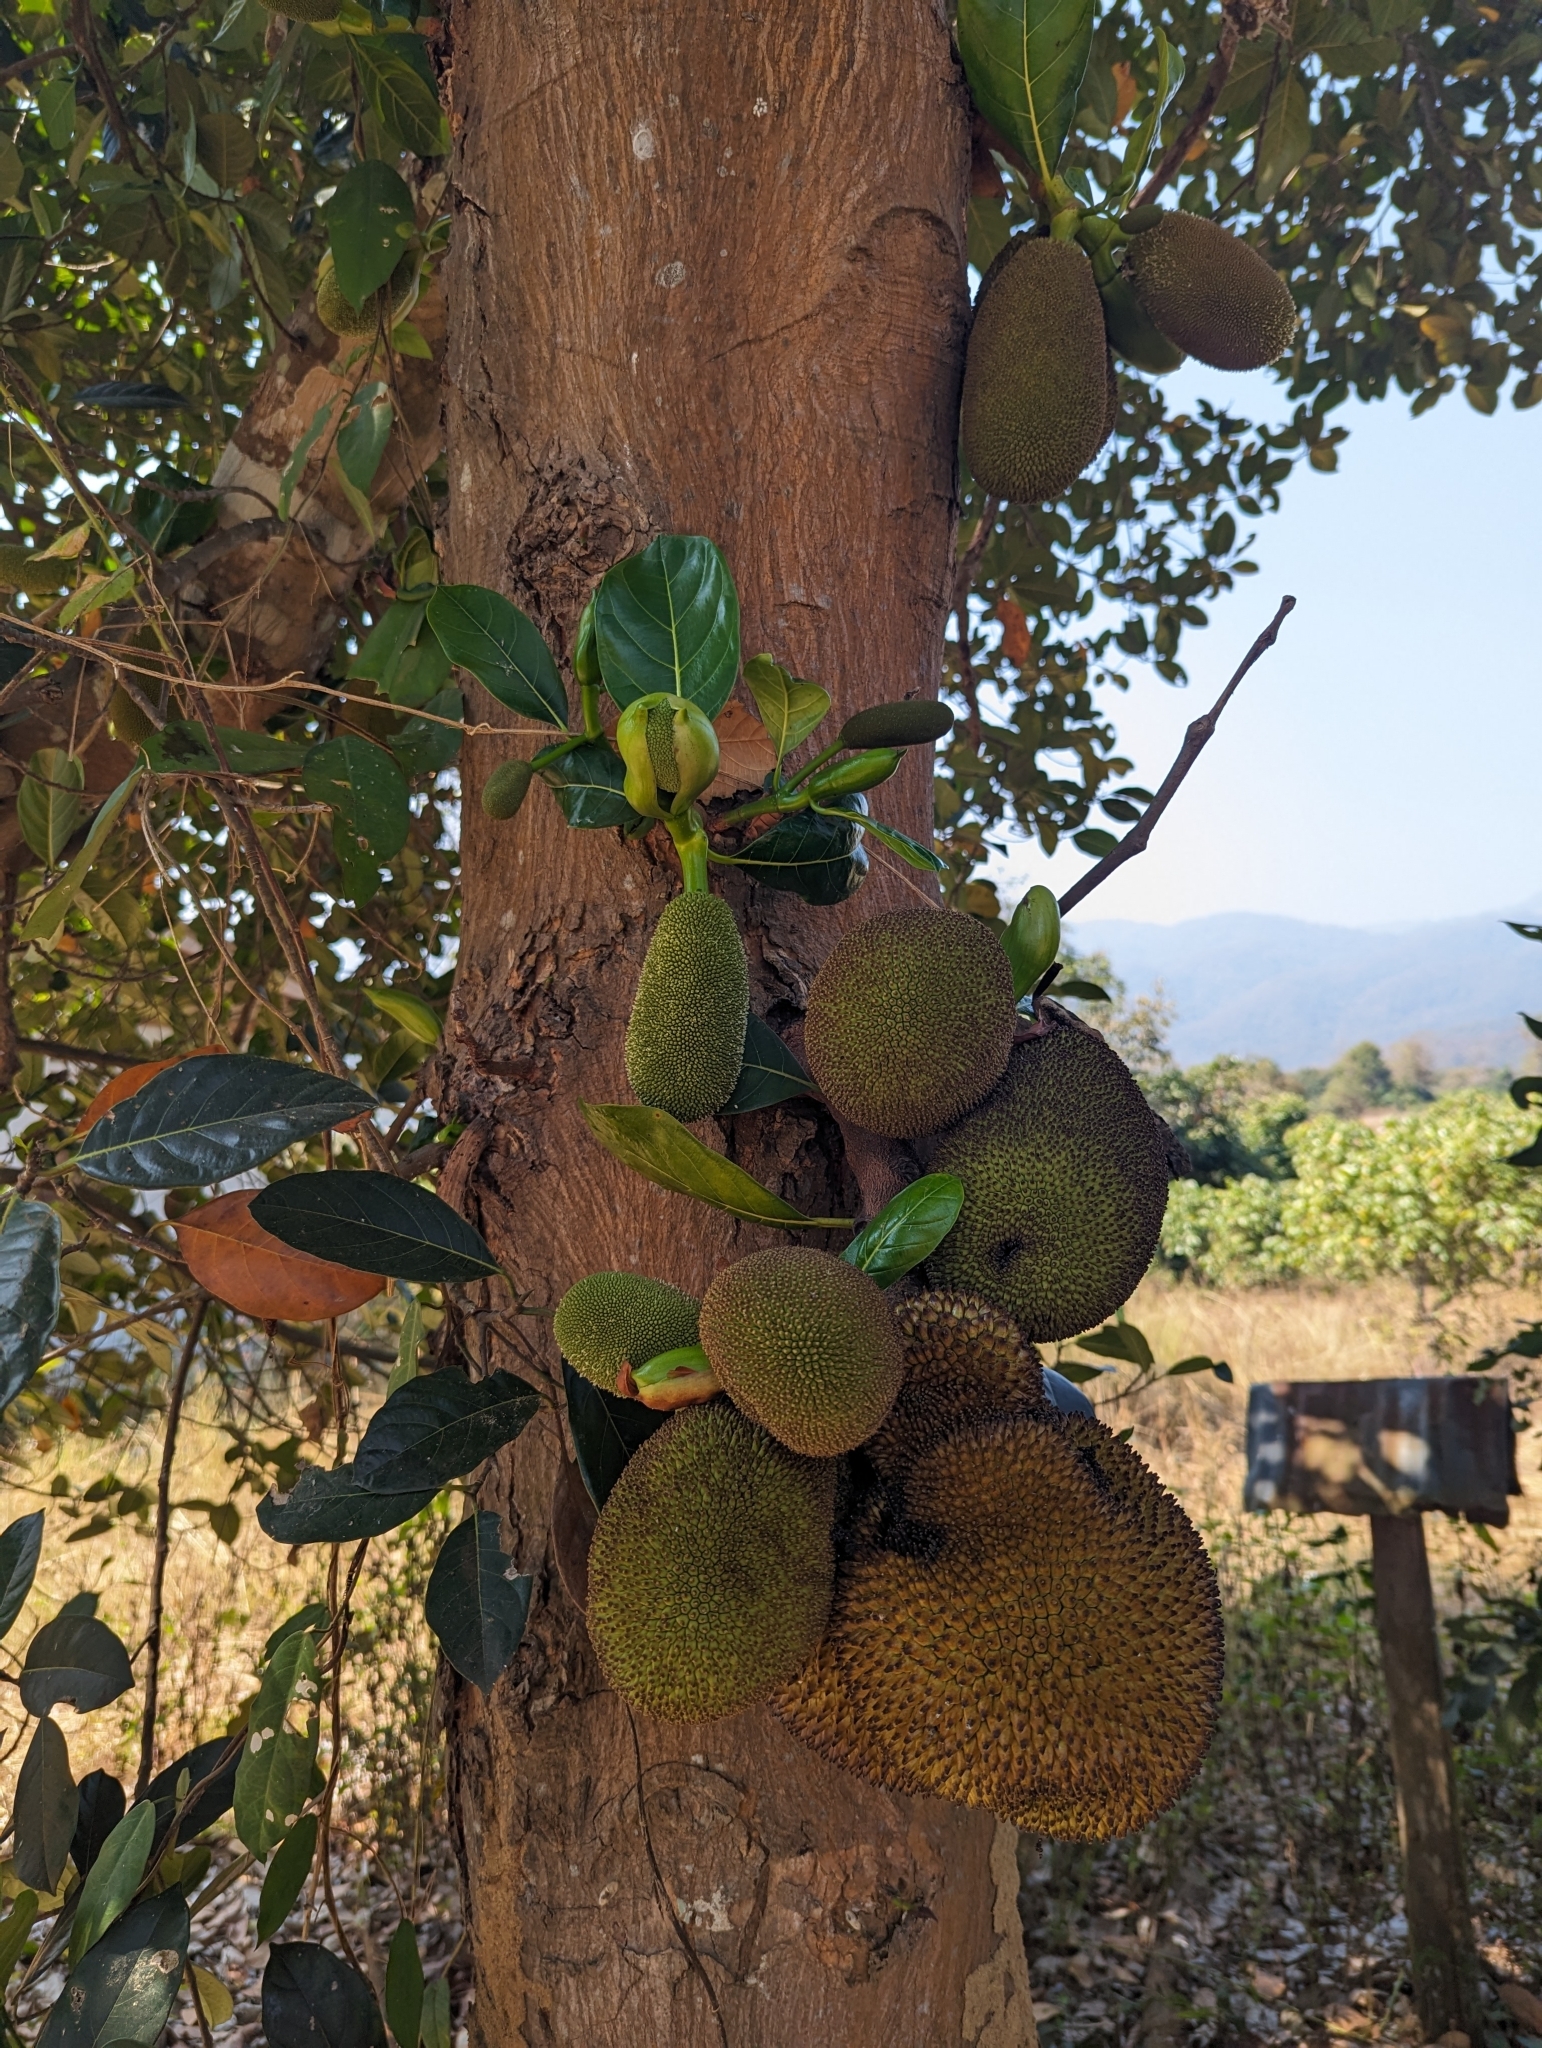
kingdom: Plantae
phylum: Tracheophyta
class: Magnoliopsida
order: Rosales
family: Moraceae
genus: Artocarpus
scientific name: Artocarpus heterophyllus
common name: Jackfruit
